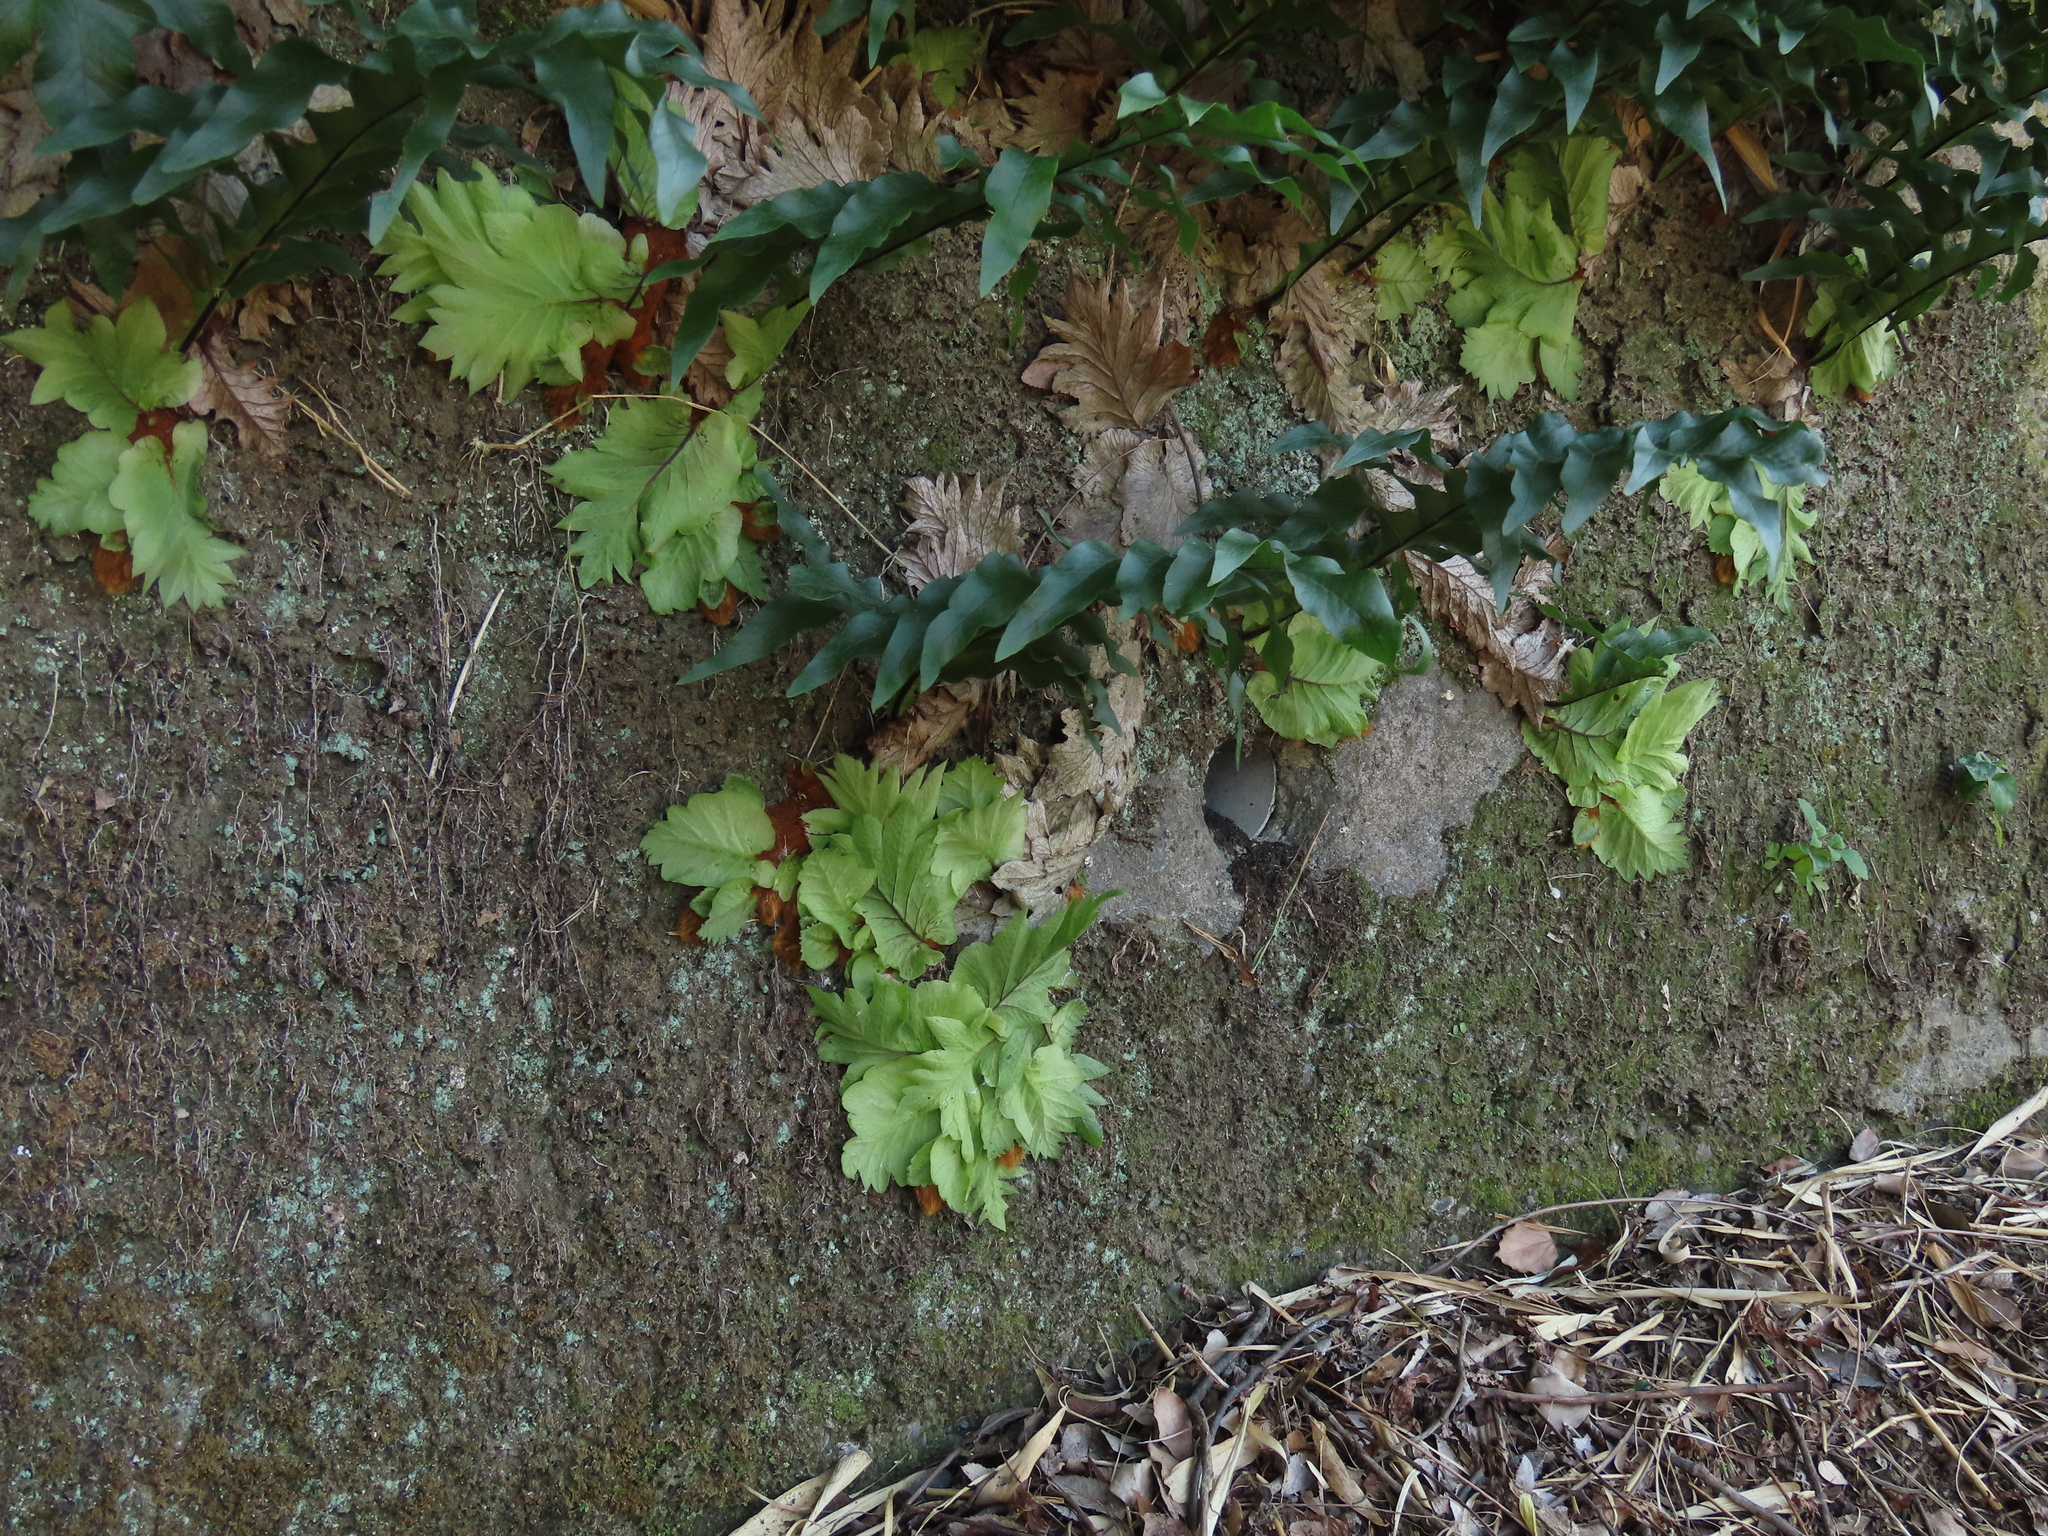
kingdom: Plantae
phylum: Tracheophyta
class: Polypodiopsida
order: Polypodiales
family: Polypodiaceae
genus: Drynaria
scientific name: Drynaria roosii
